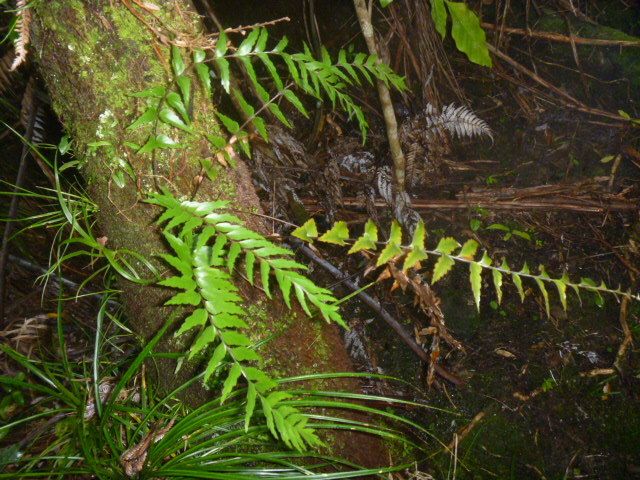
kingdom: Plantae
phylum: Tracheophyta
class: Polypodiopsida
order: Polypodiales
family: Aspleniaceae
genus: Asplenium
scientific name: Asplenium polyodon
